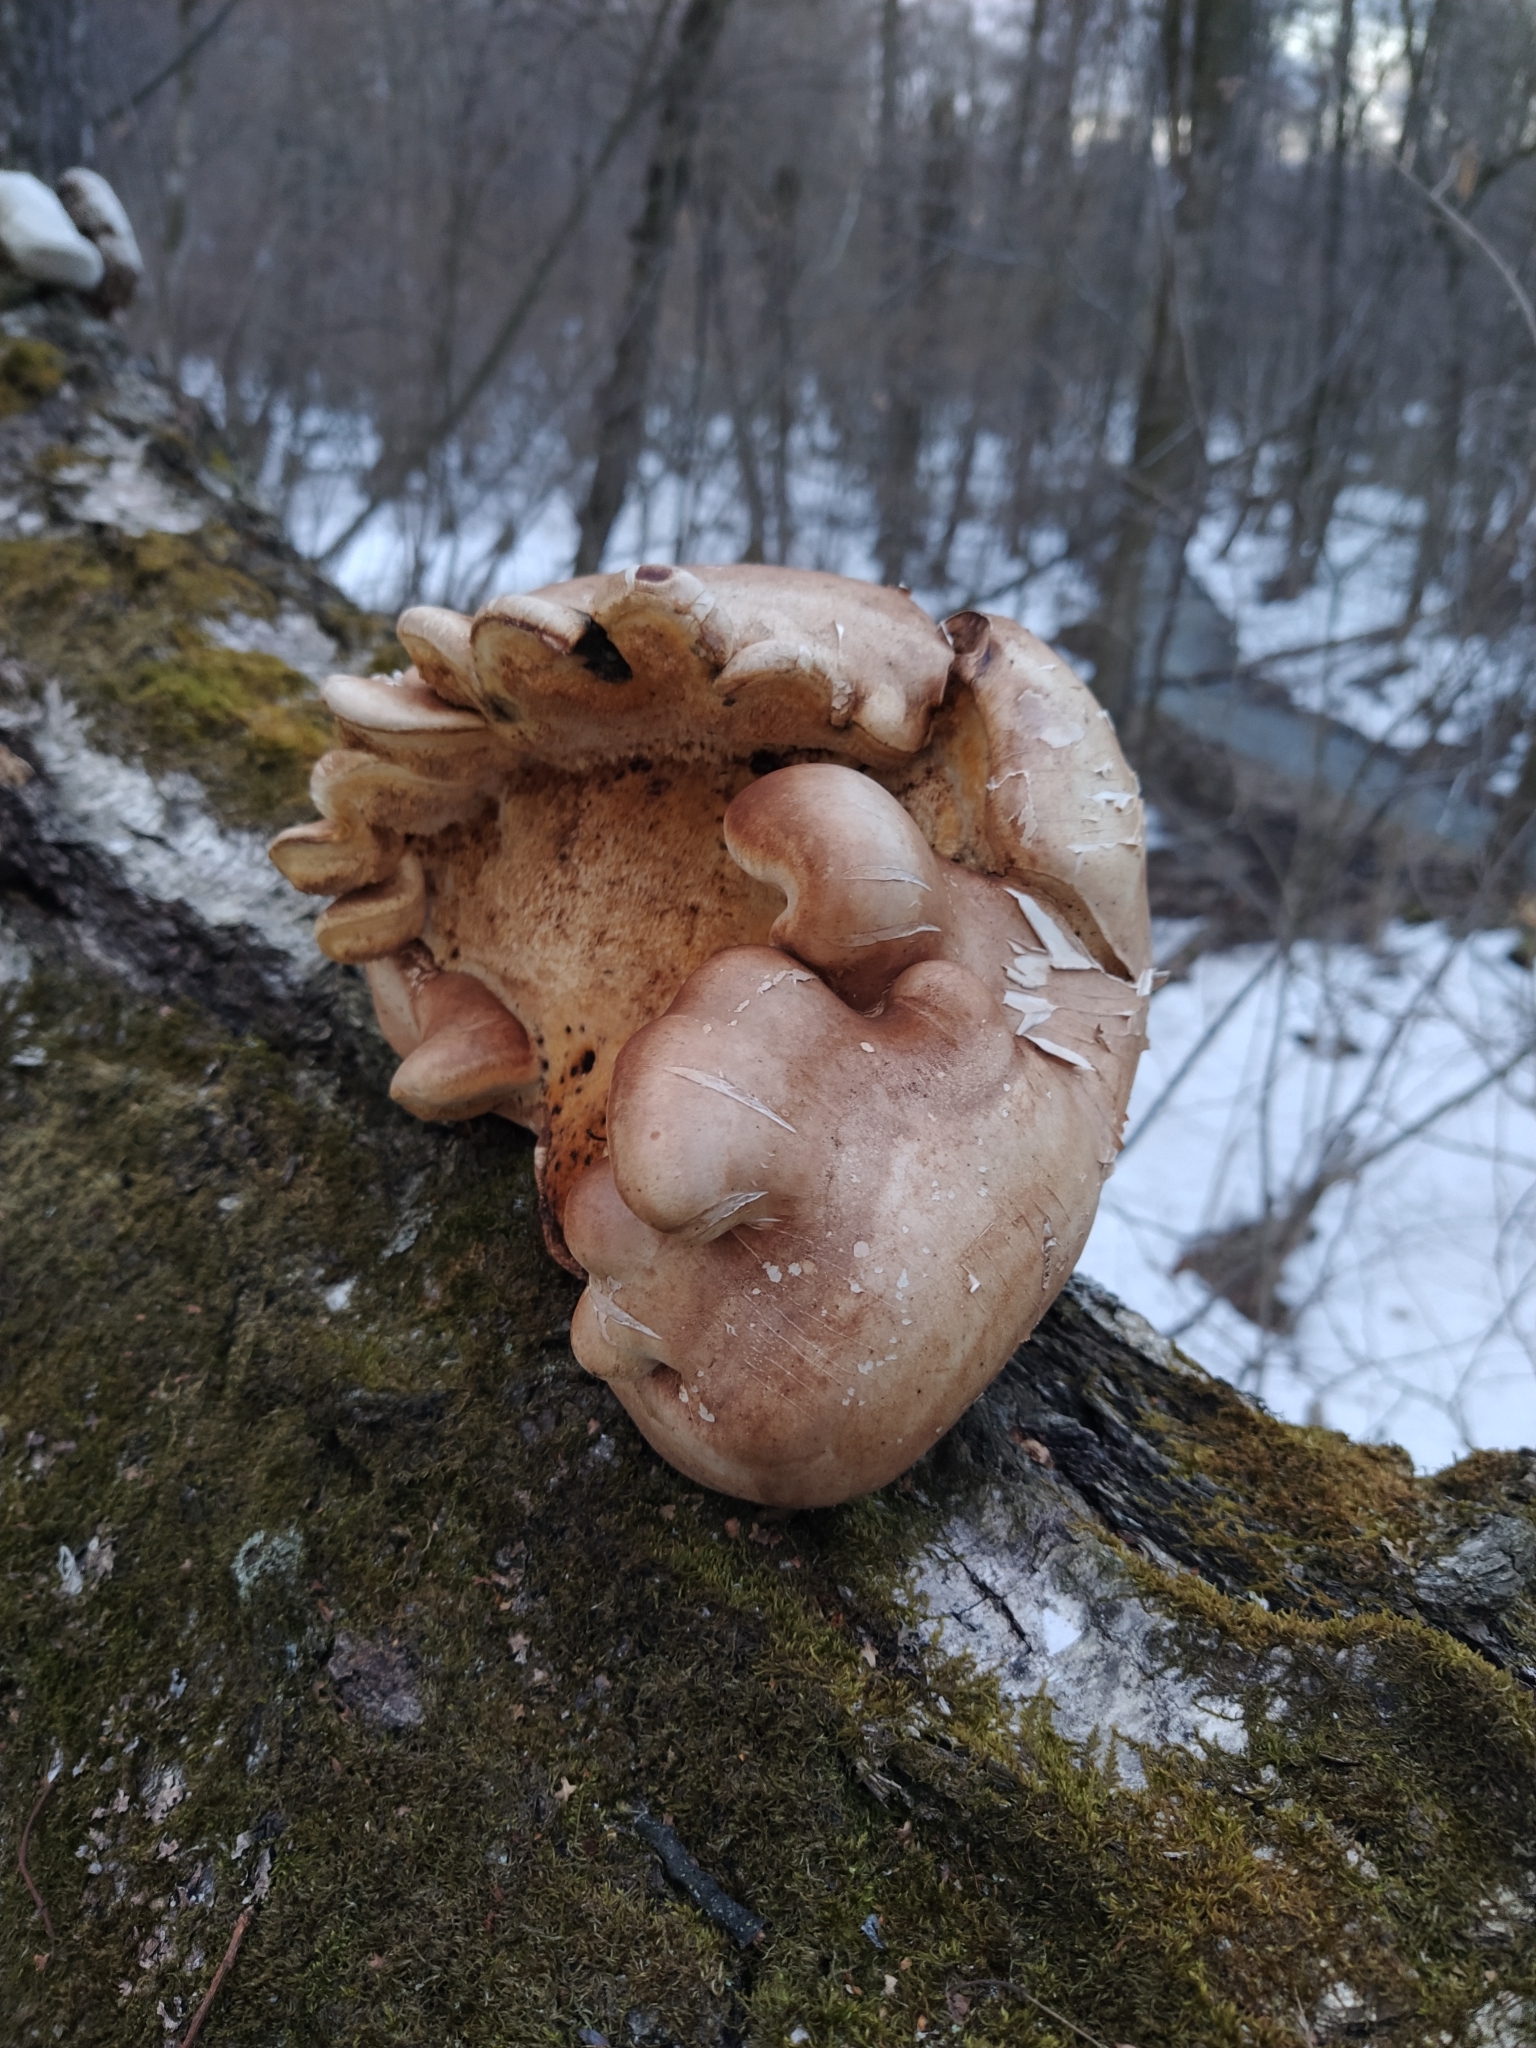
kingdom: Fungi
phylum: Basidiomycota
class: Agaricomycetes
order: Polyporales
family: Fomitopsidaceae
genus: Fomitopsis
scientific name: Fomitopsis betulina
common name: Birch polypore
